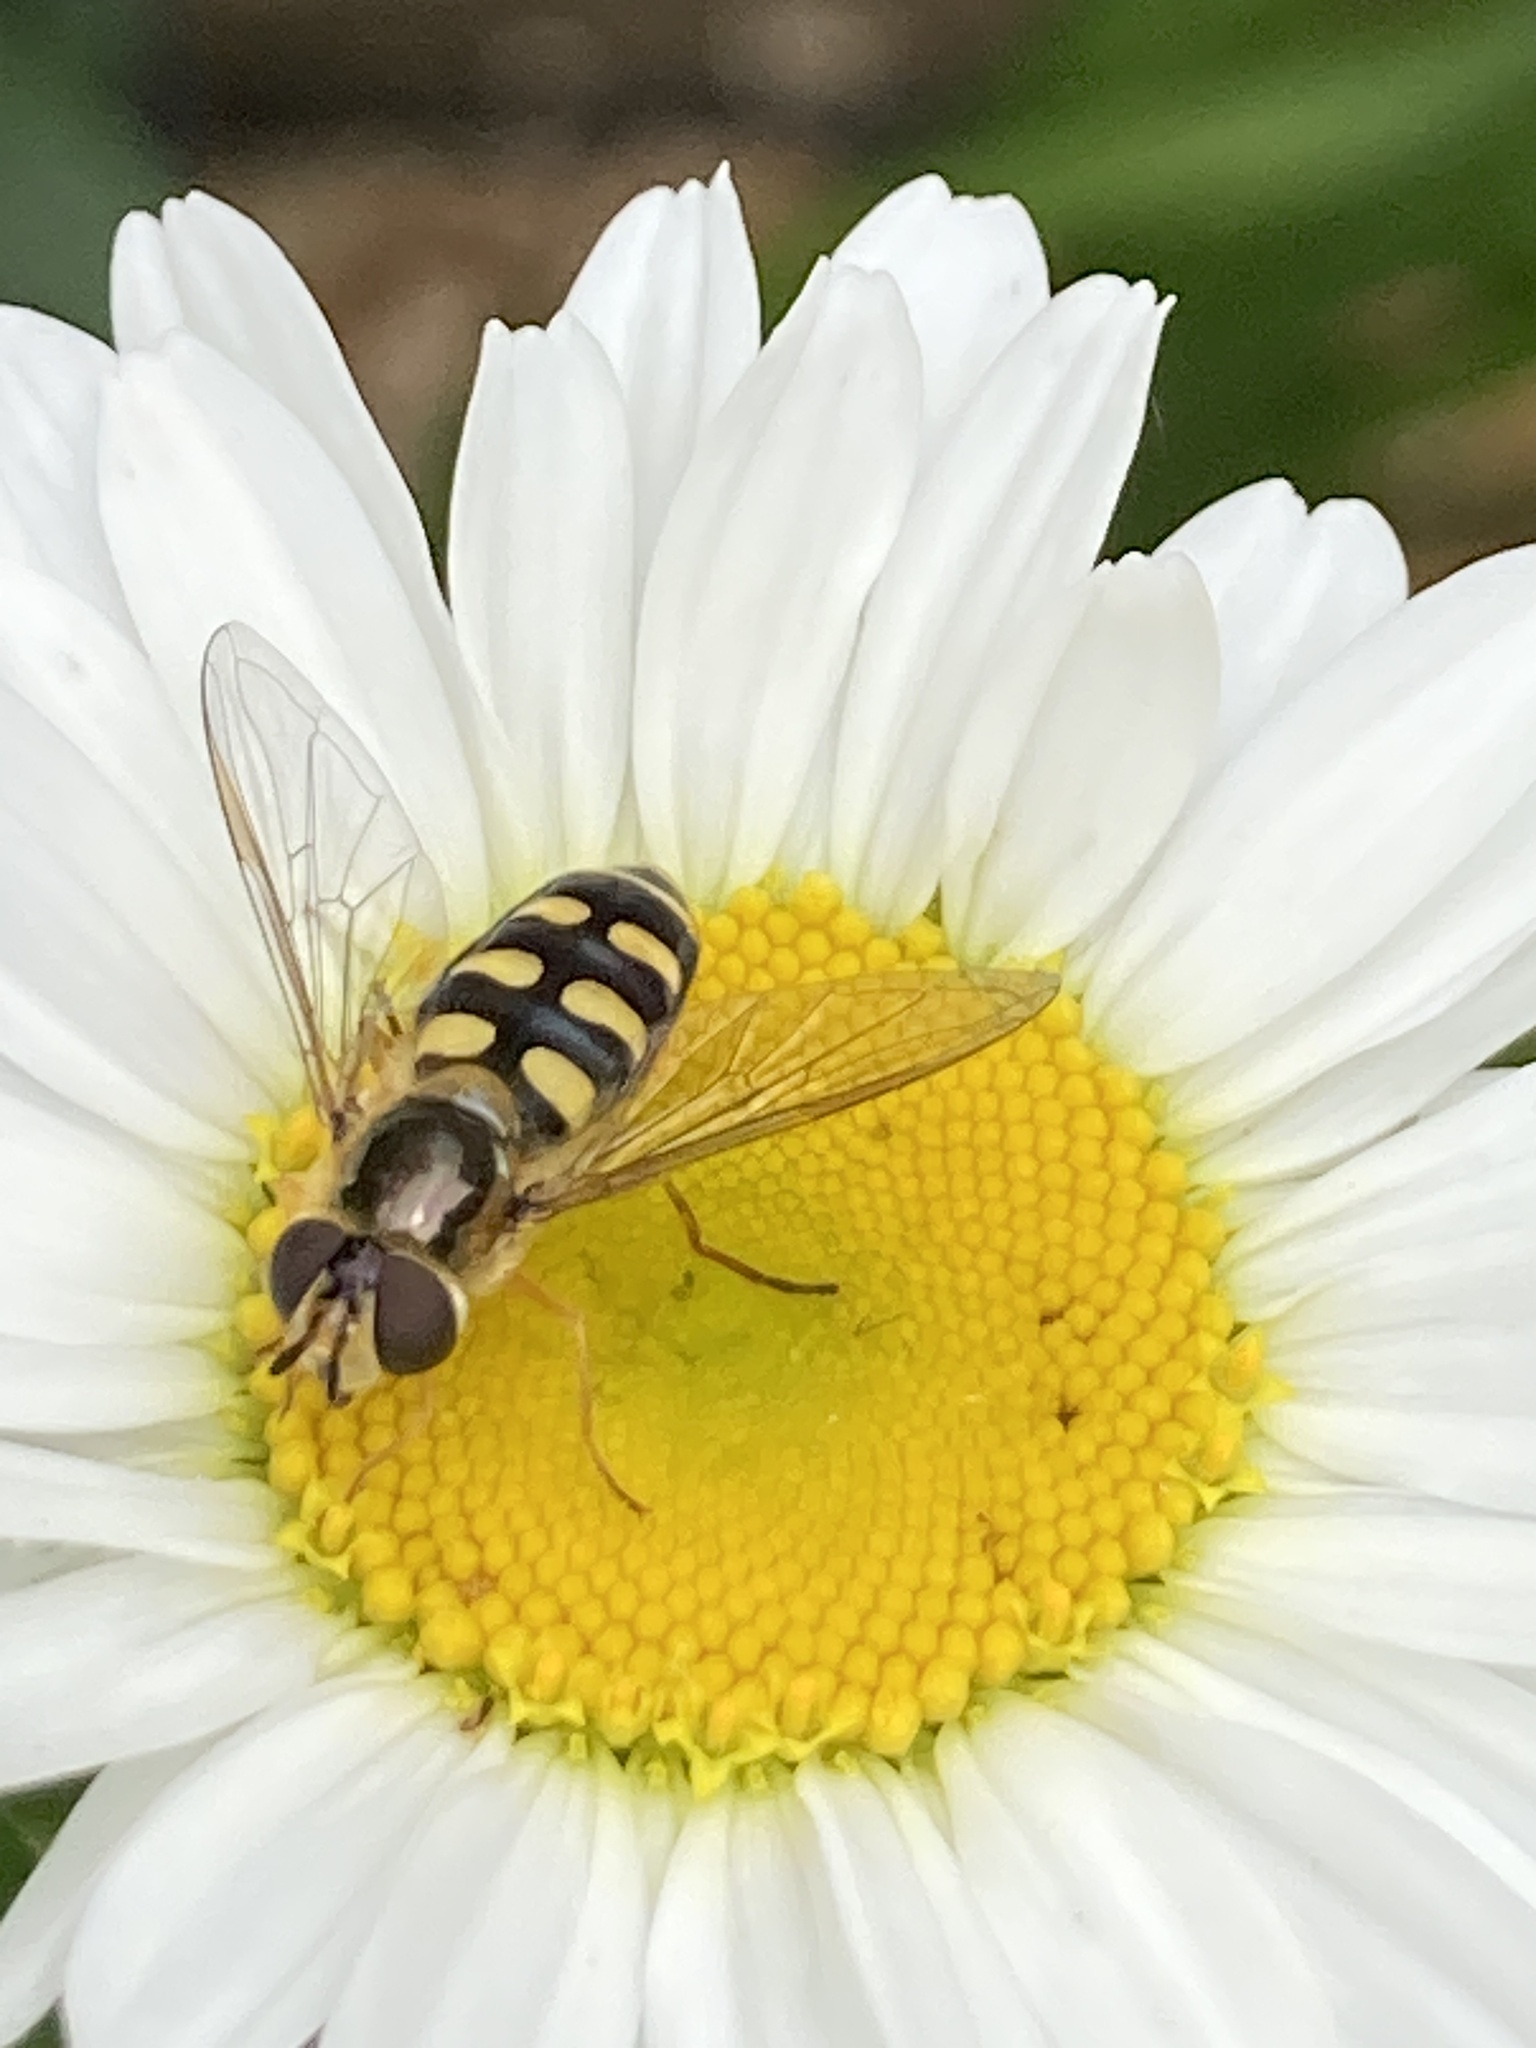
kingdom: Animalia
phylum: Arthropoda
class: Insecta
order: Diptera
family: Syrphidae
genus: Eupeodes
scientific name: Eupeodes luniger
